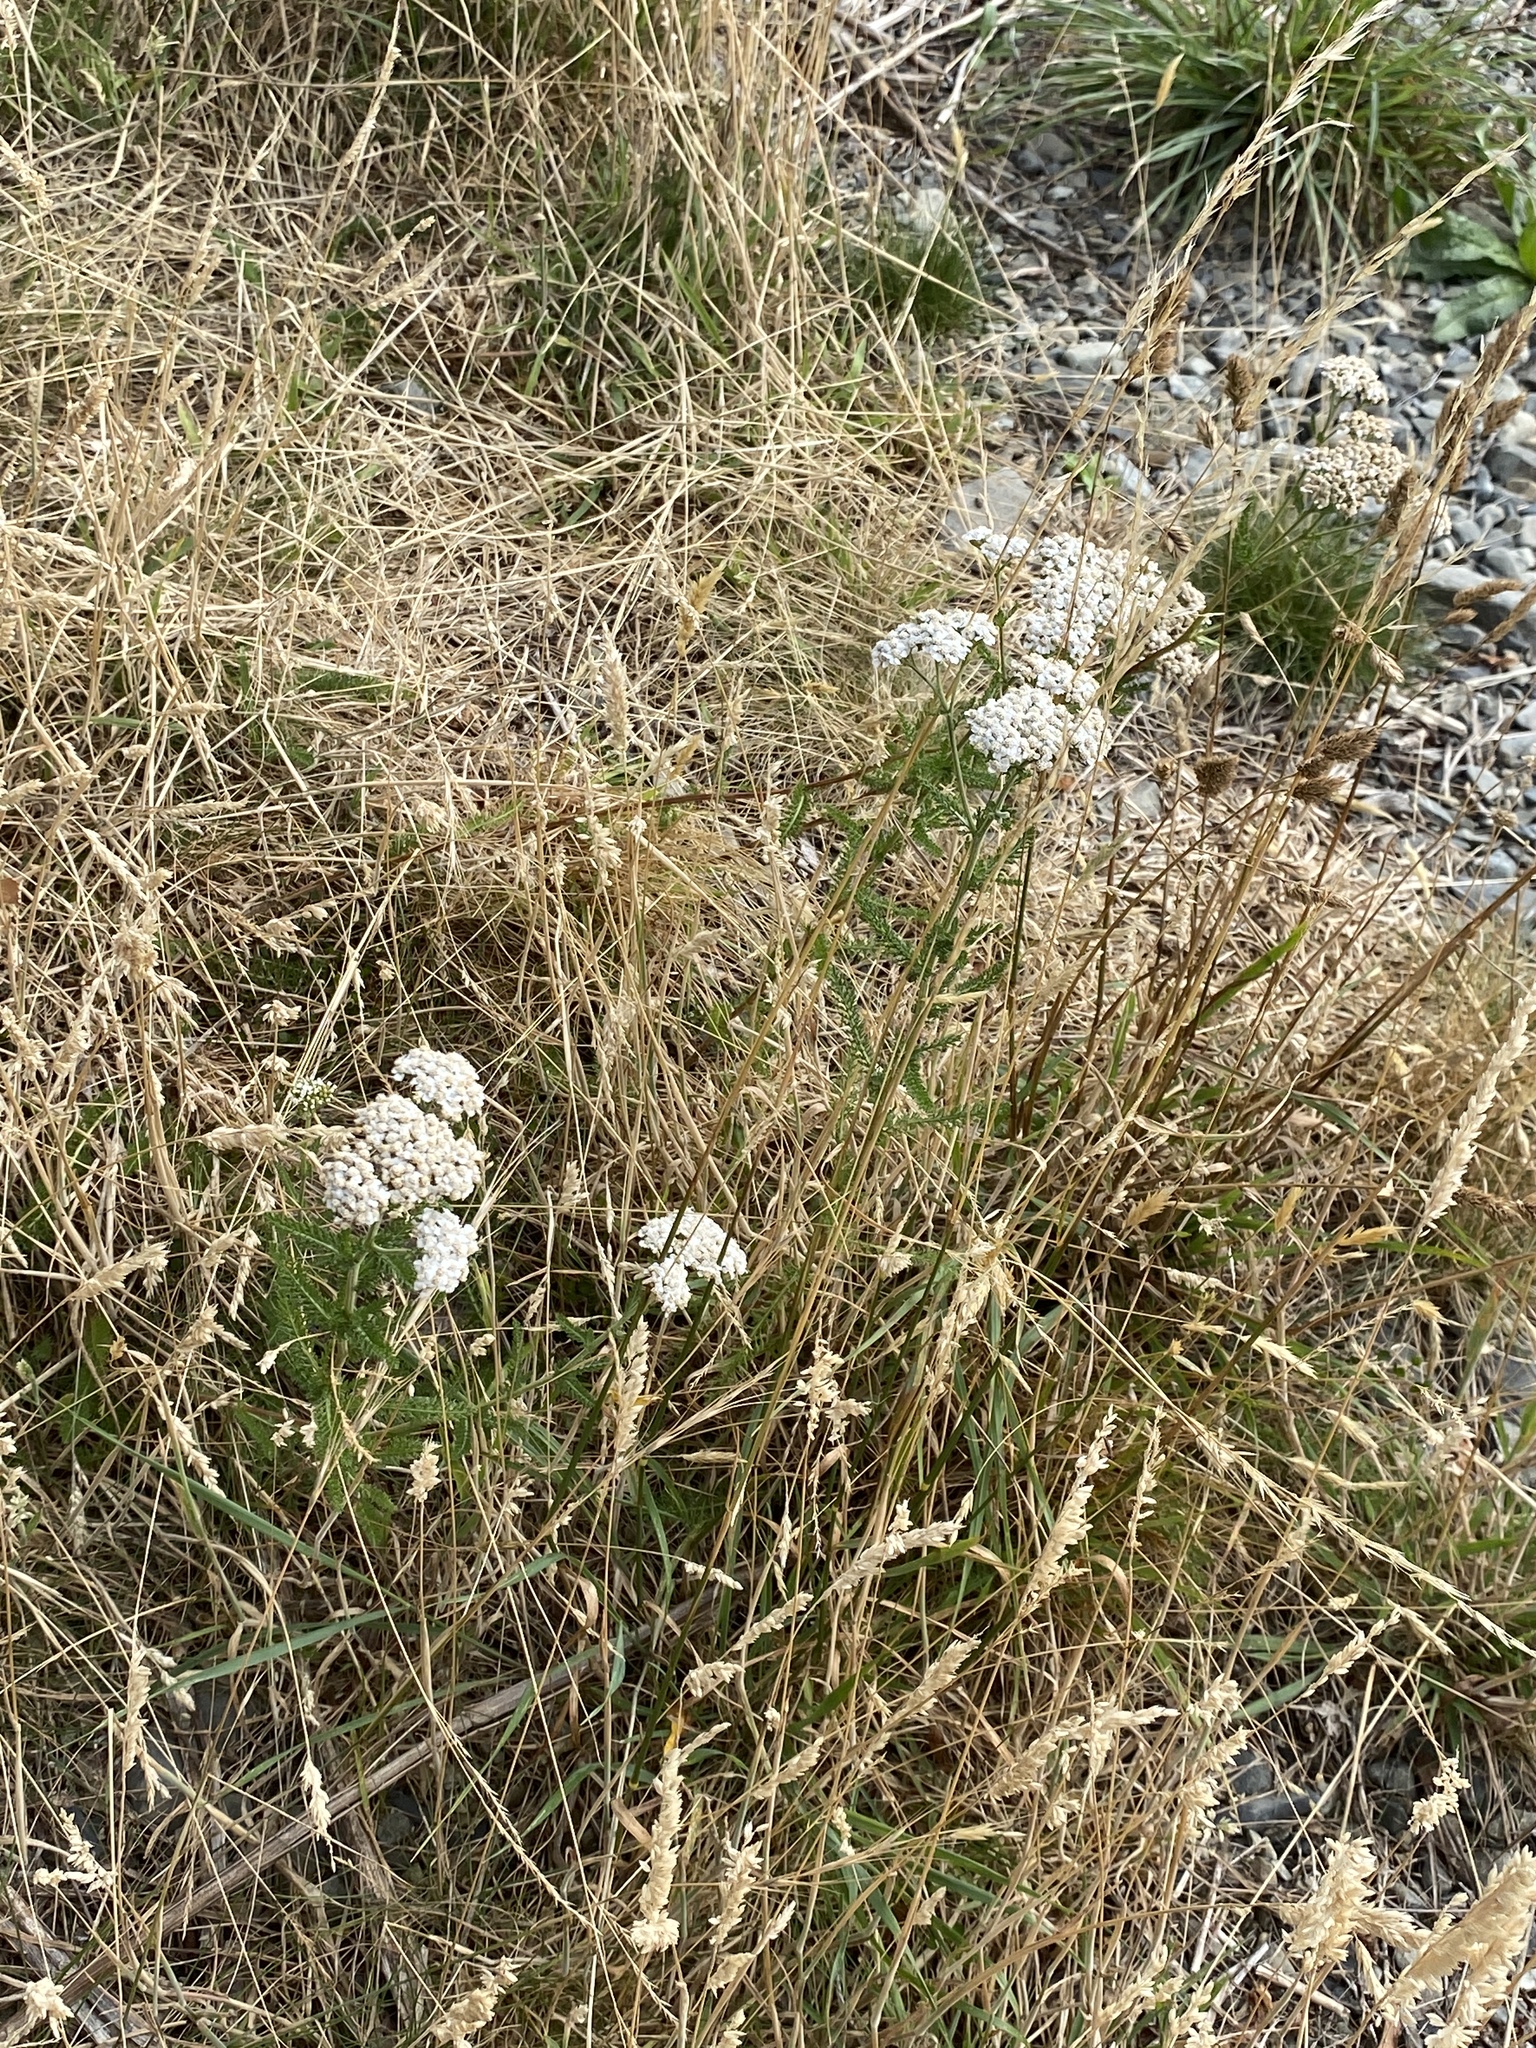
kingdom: Plantae
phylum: Tracheophyta
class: Magnoliopsida
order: Asterales
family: Asteraceae
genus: Achillea
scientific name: Achillea millefolium
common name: Yarrow
